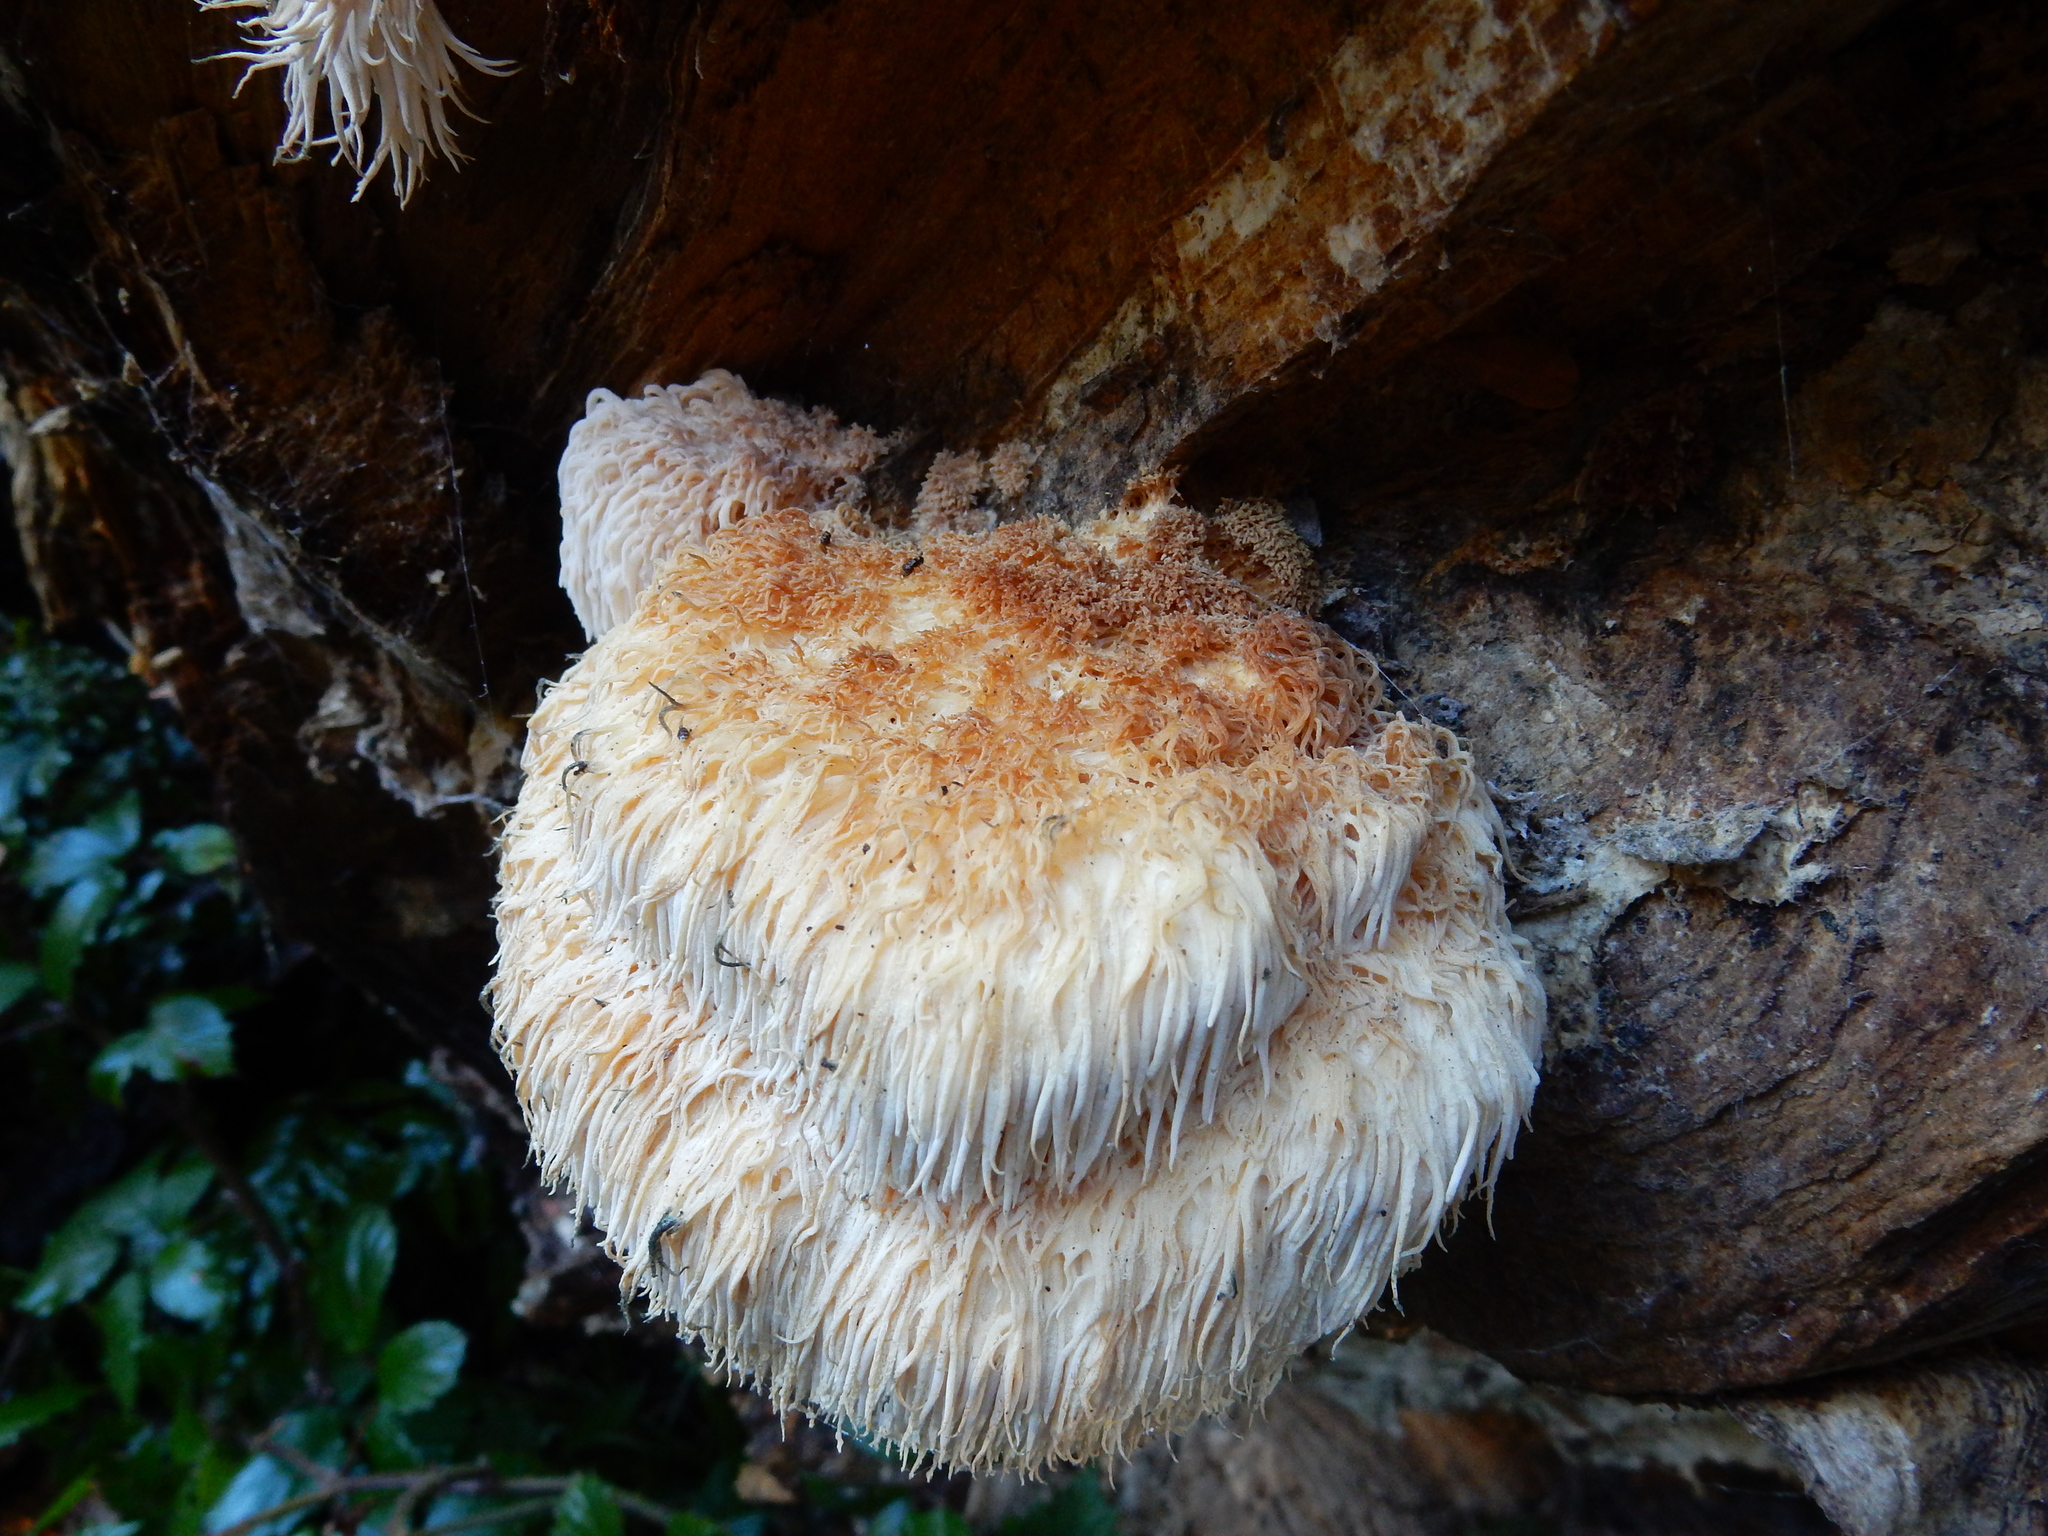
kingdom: Fungi
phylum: Basidiomycota
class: Agaricomycetes
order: Russulales
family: Hericiaceae
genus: Hericium
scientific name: Hericium novae-zealandiae
